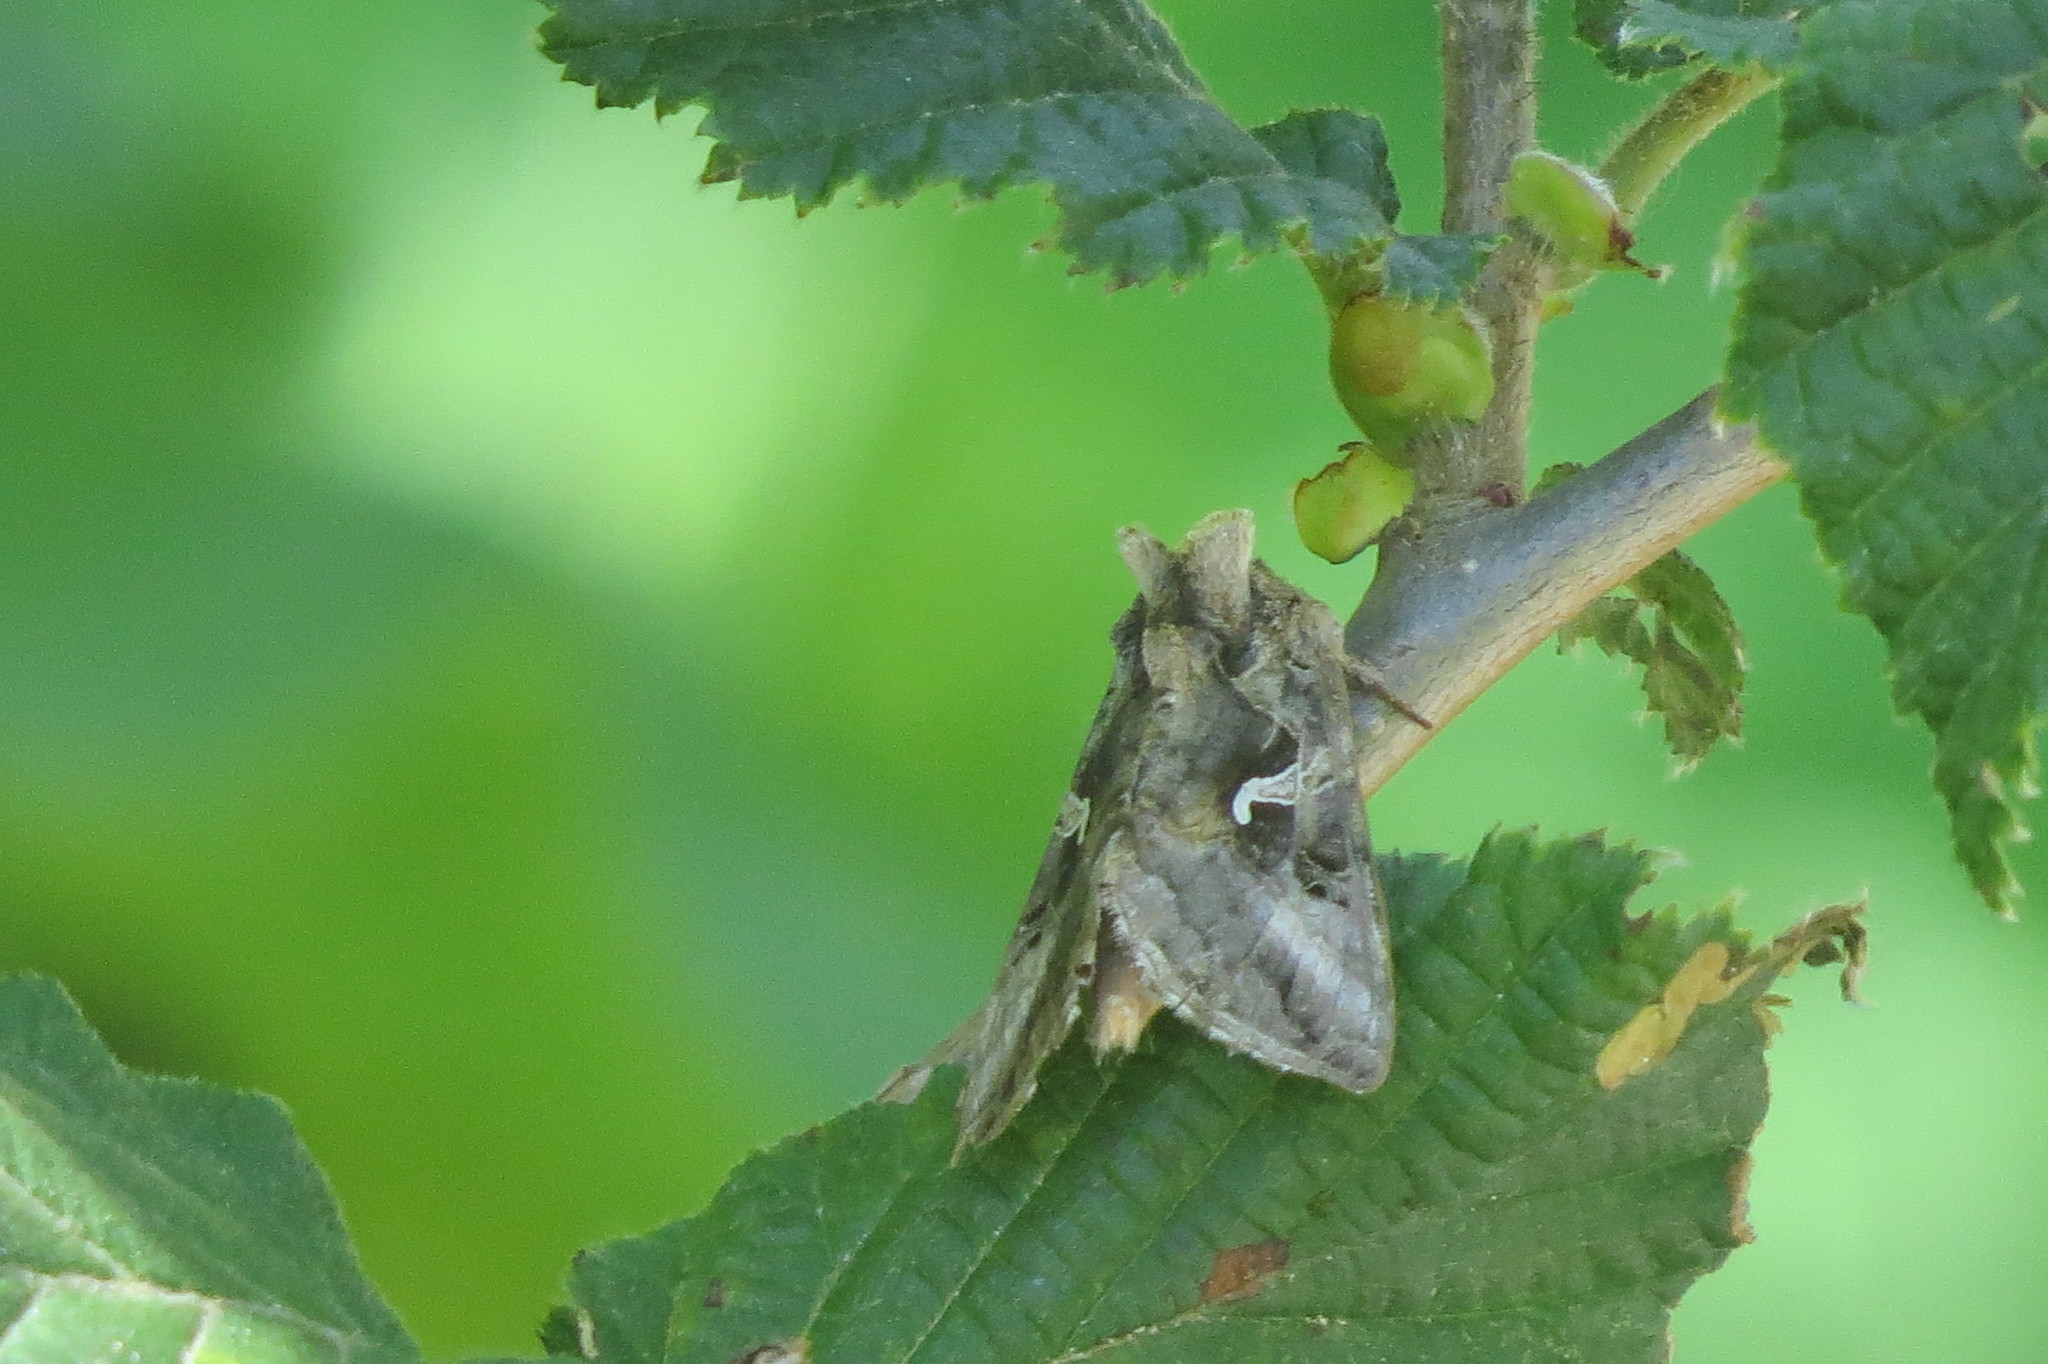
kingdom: Animalia
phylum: Arthropoda
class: Insecta
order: Lepidoptera
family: Noctuidae
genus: Autographa
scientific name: Autographa gamma
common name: Silver y
